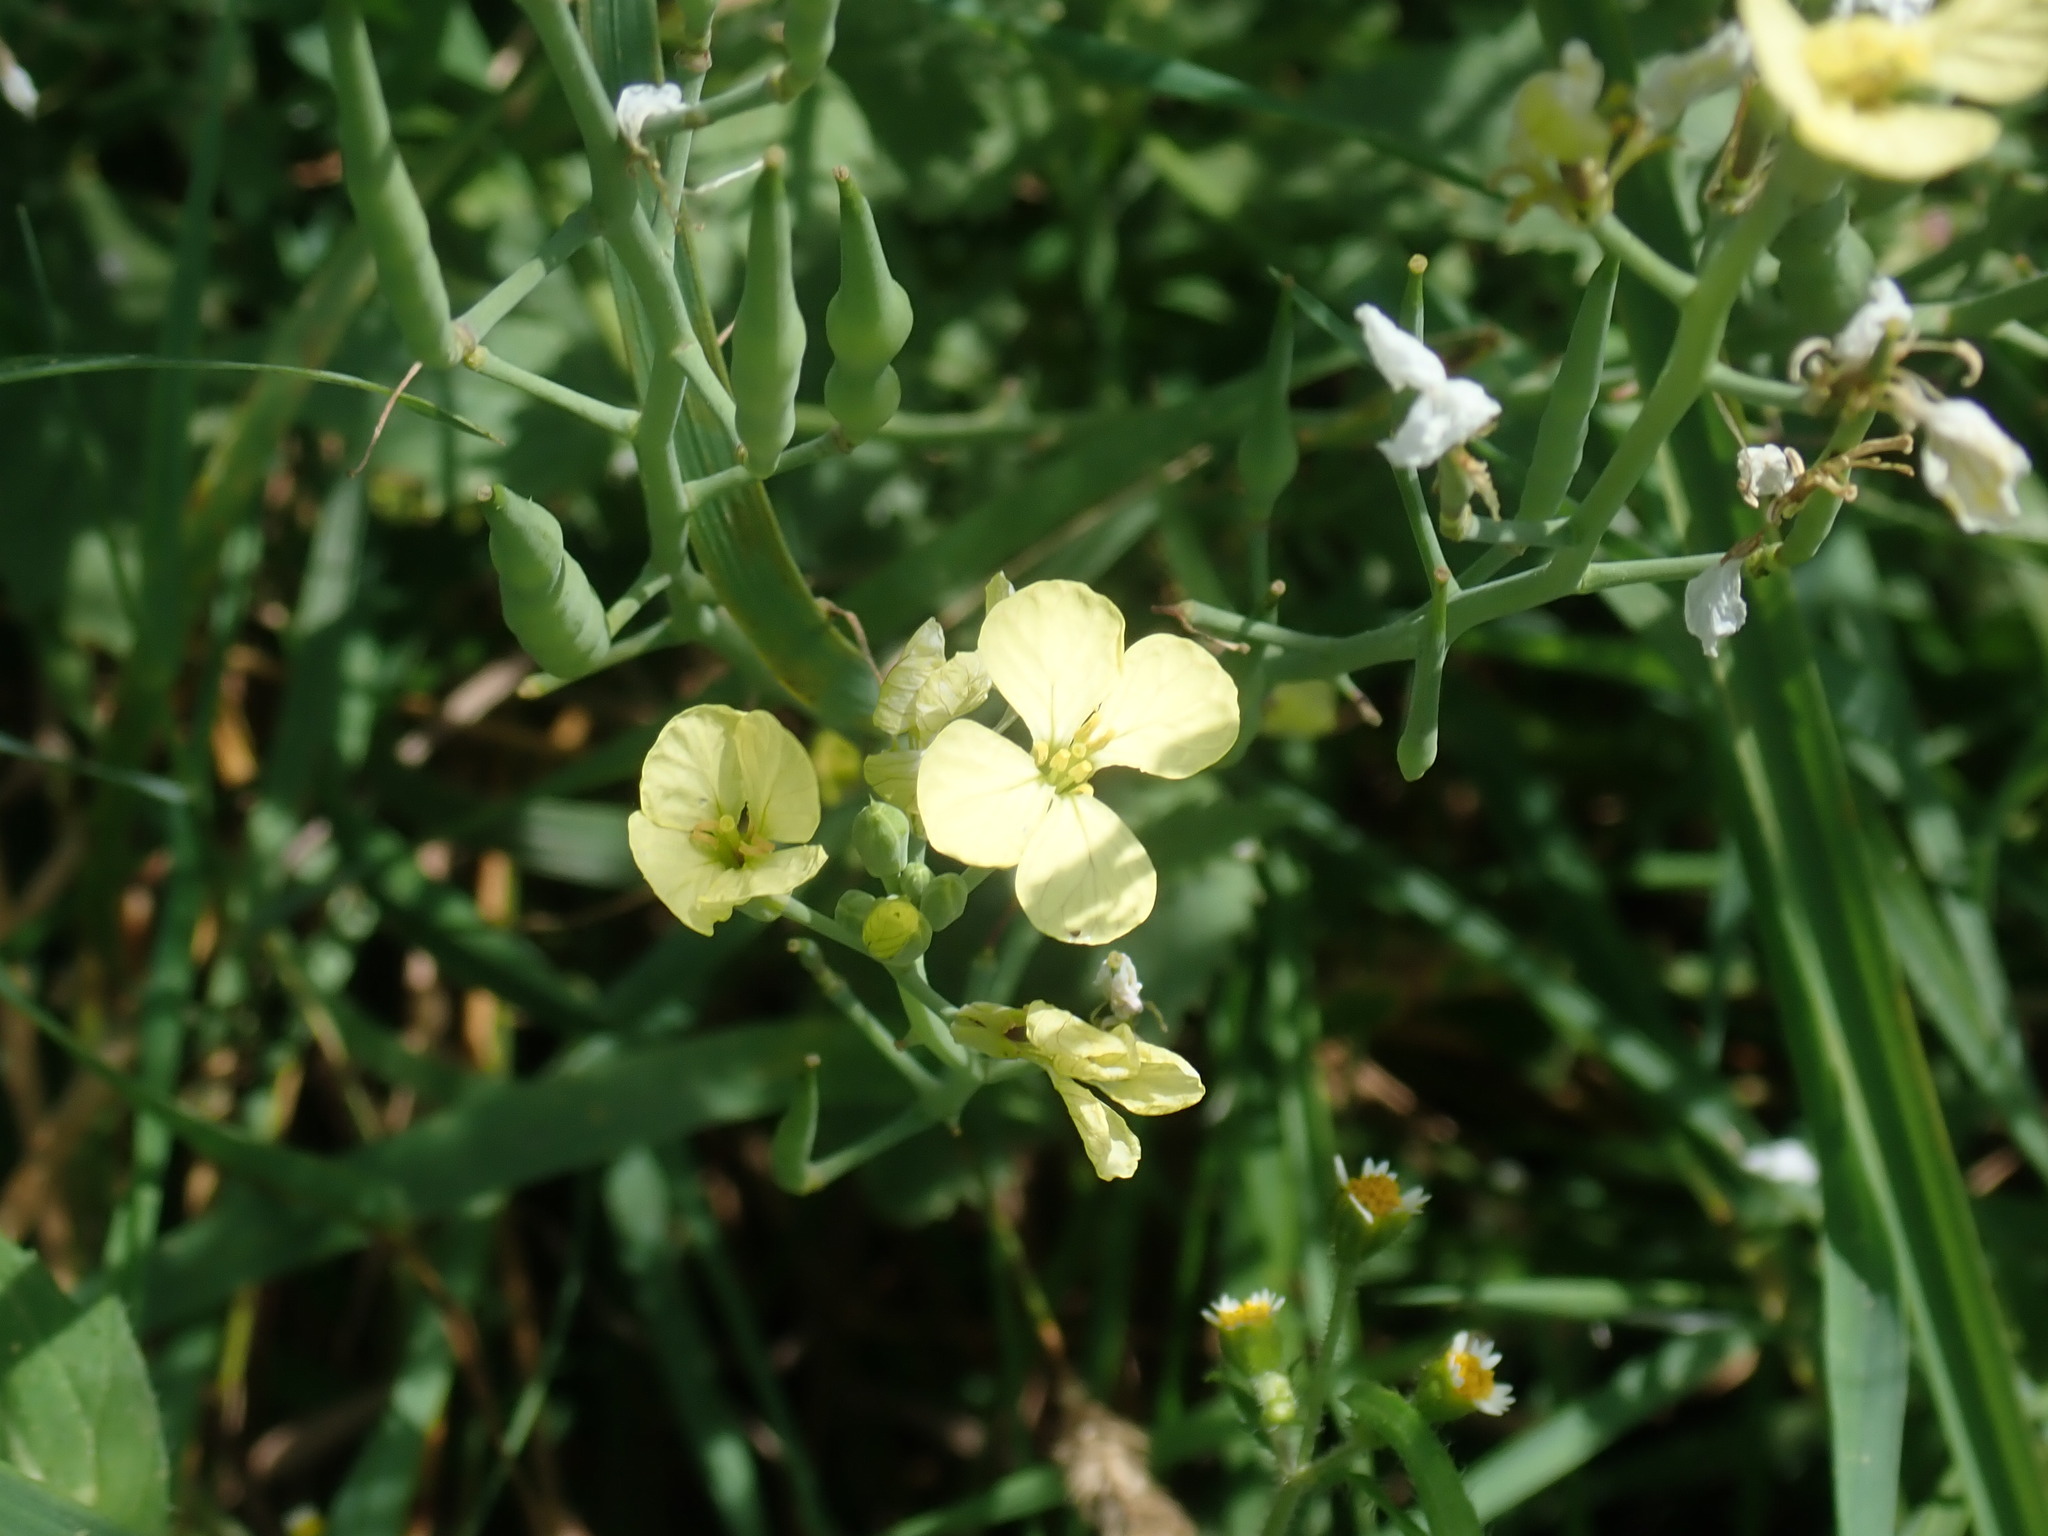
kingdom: Plantae
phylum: Tracheophyta
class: Magnoliopsida
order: Brassicales
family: Brassicaceae
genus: Raphanus
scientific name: Raphanus raphanistrum
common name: Wild radish
